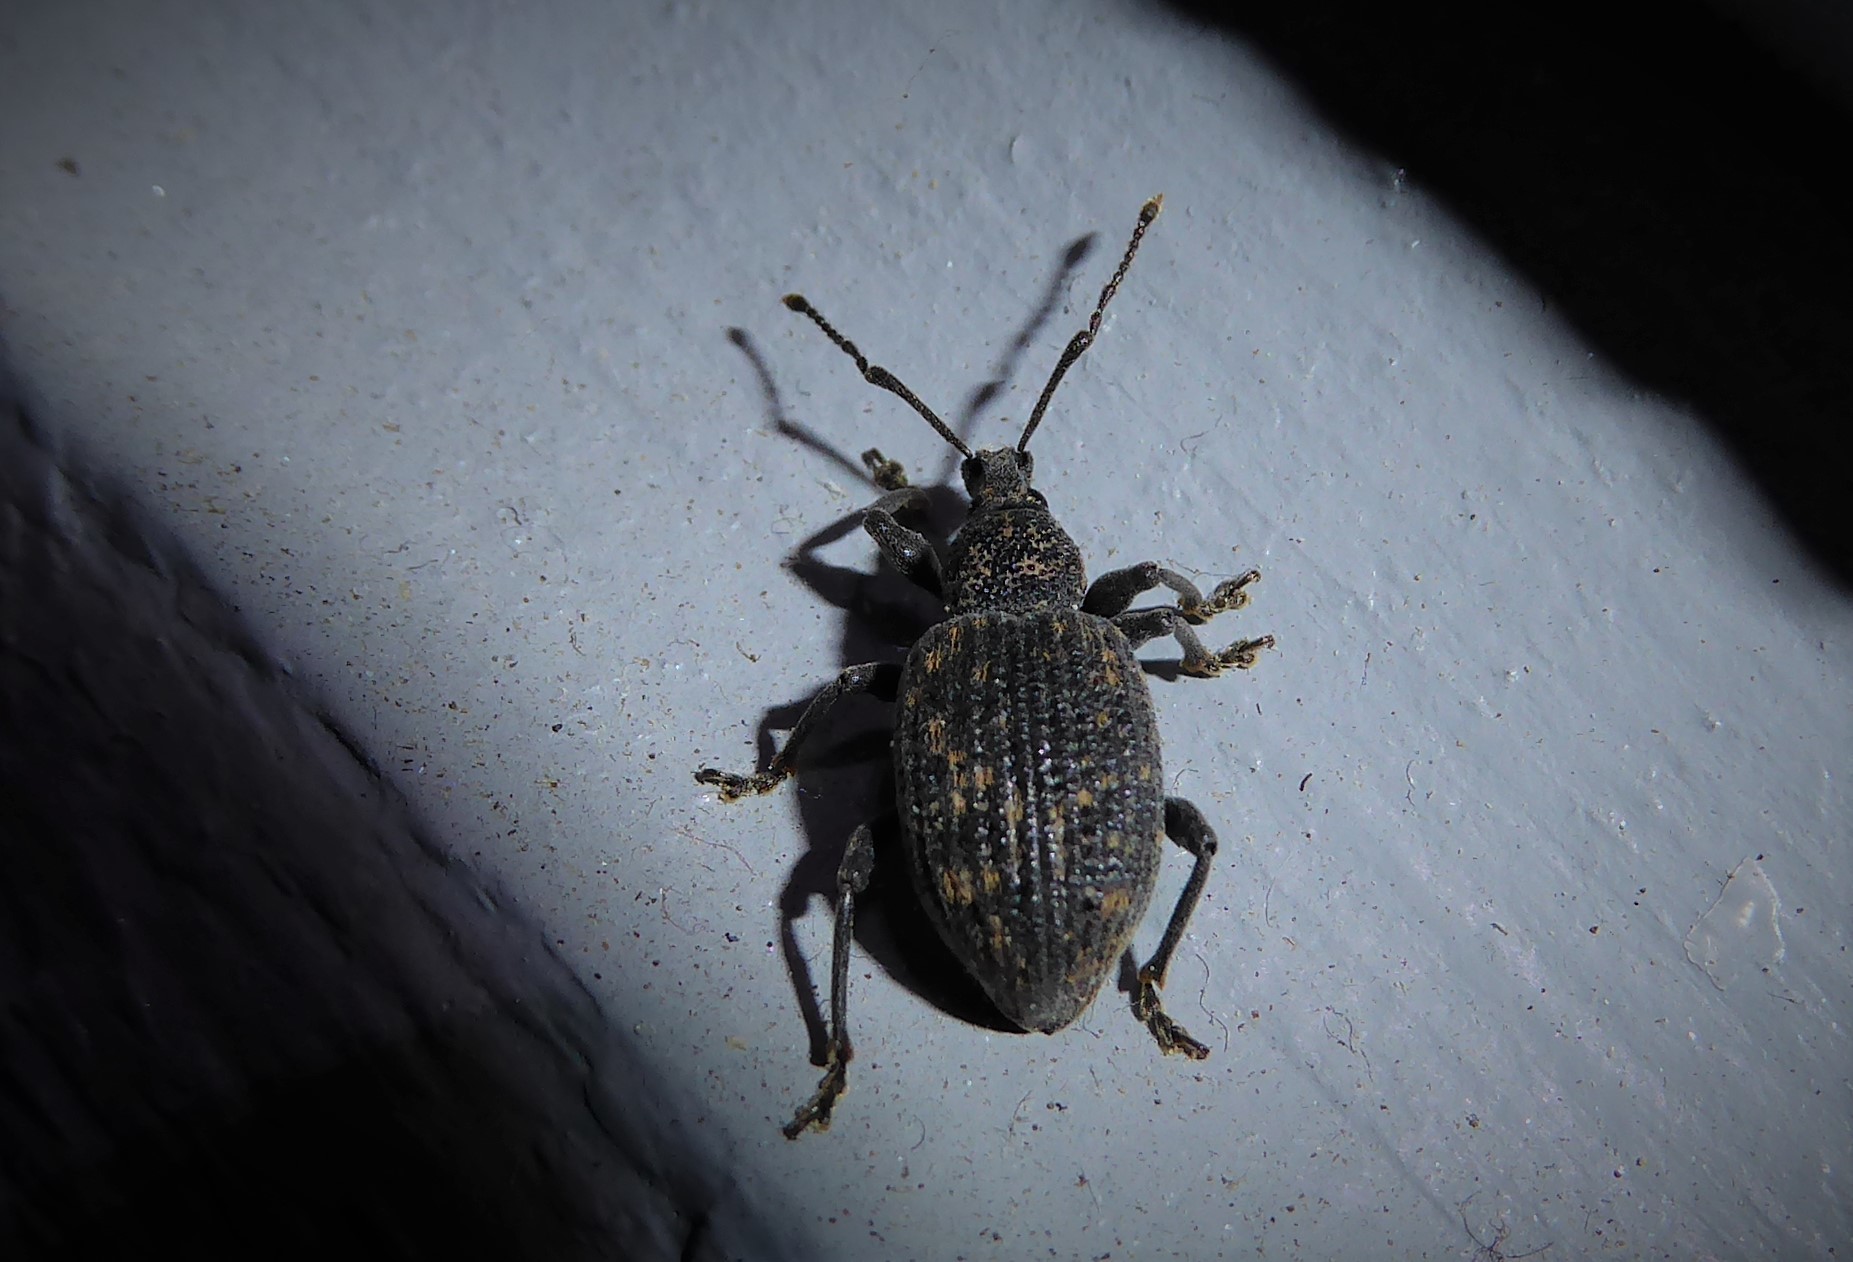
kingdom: Animalia
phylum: Arthropoda
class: Insecta
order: Coleoptera
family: Curculionidae
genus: Otiorhynchus
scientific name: Otiorhynchus sulcatus
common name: Black vine weevil
